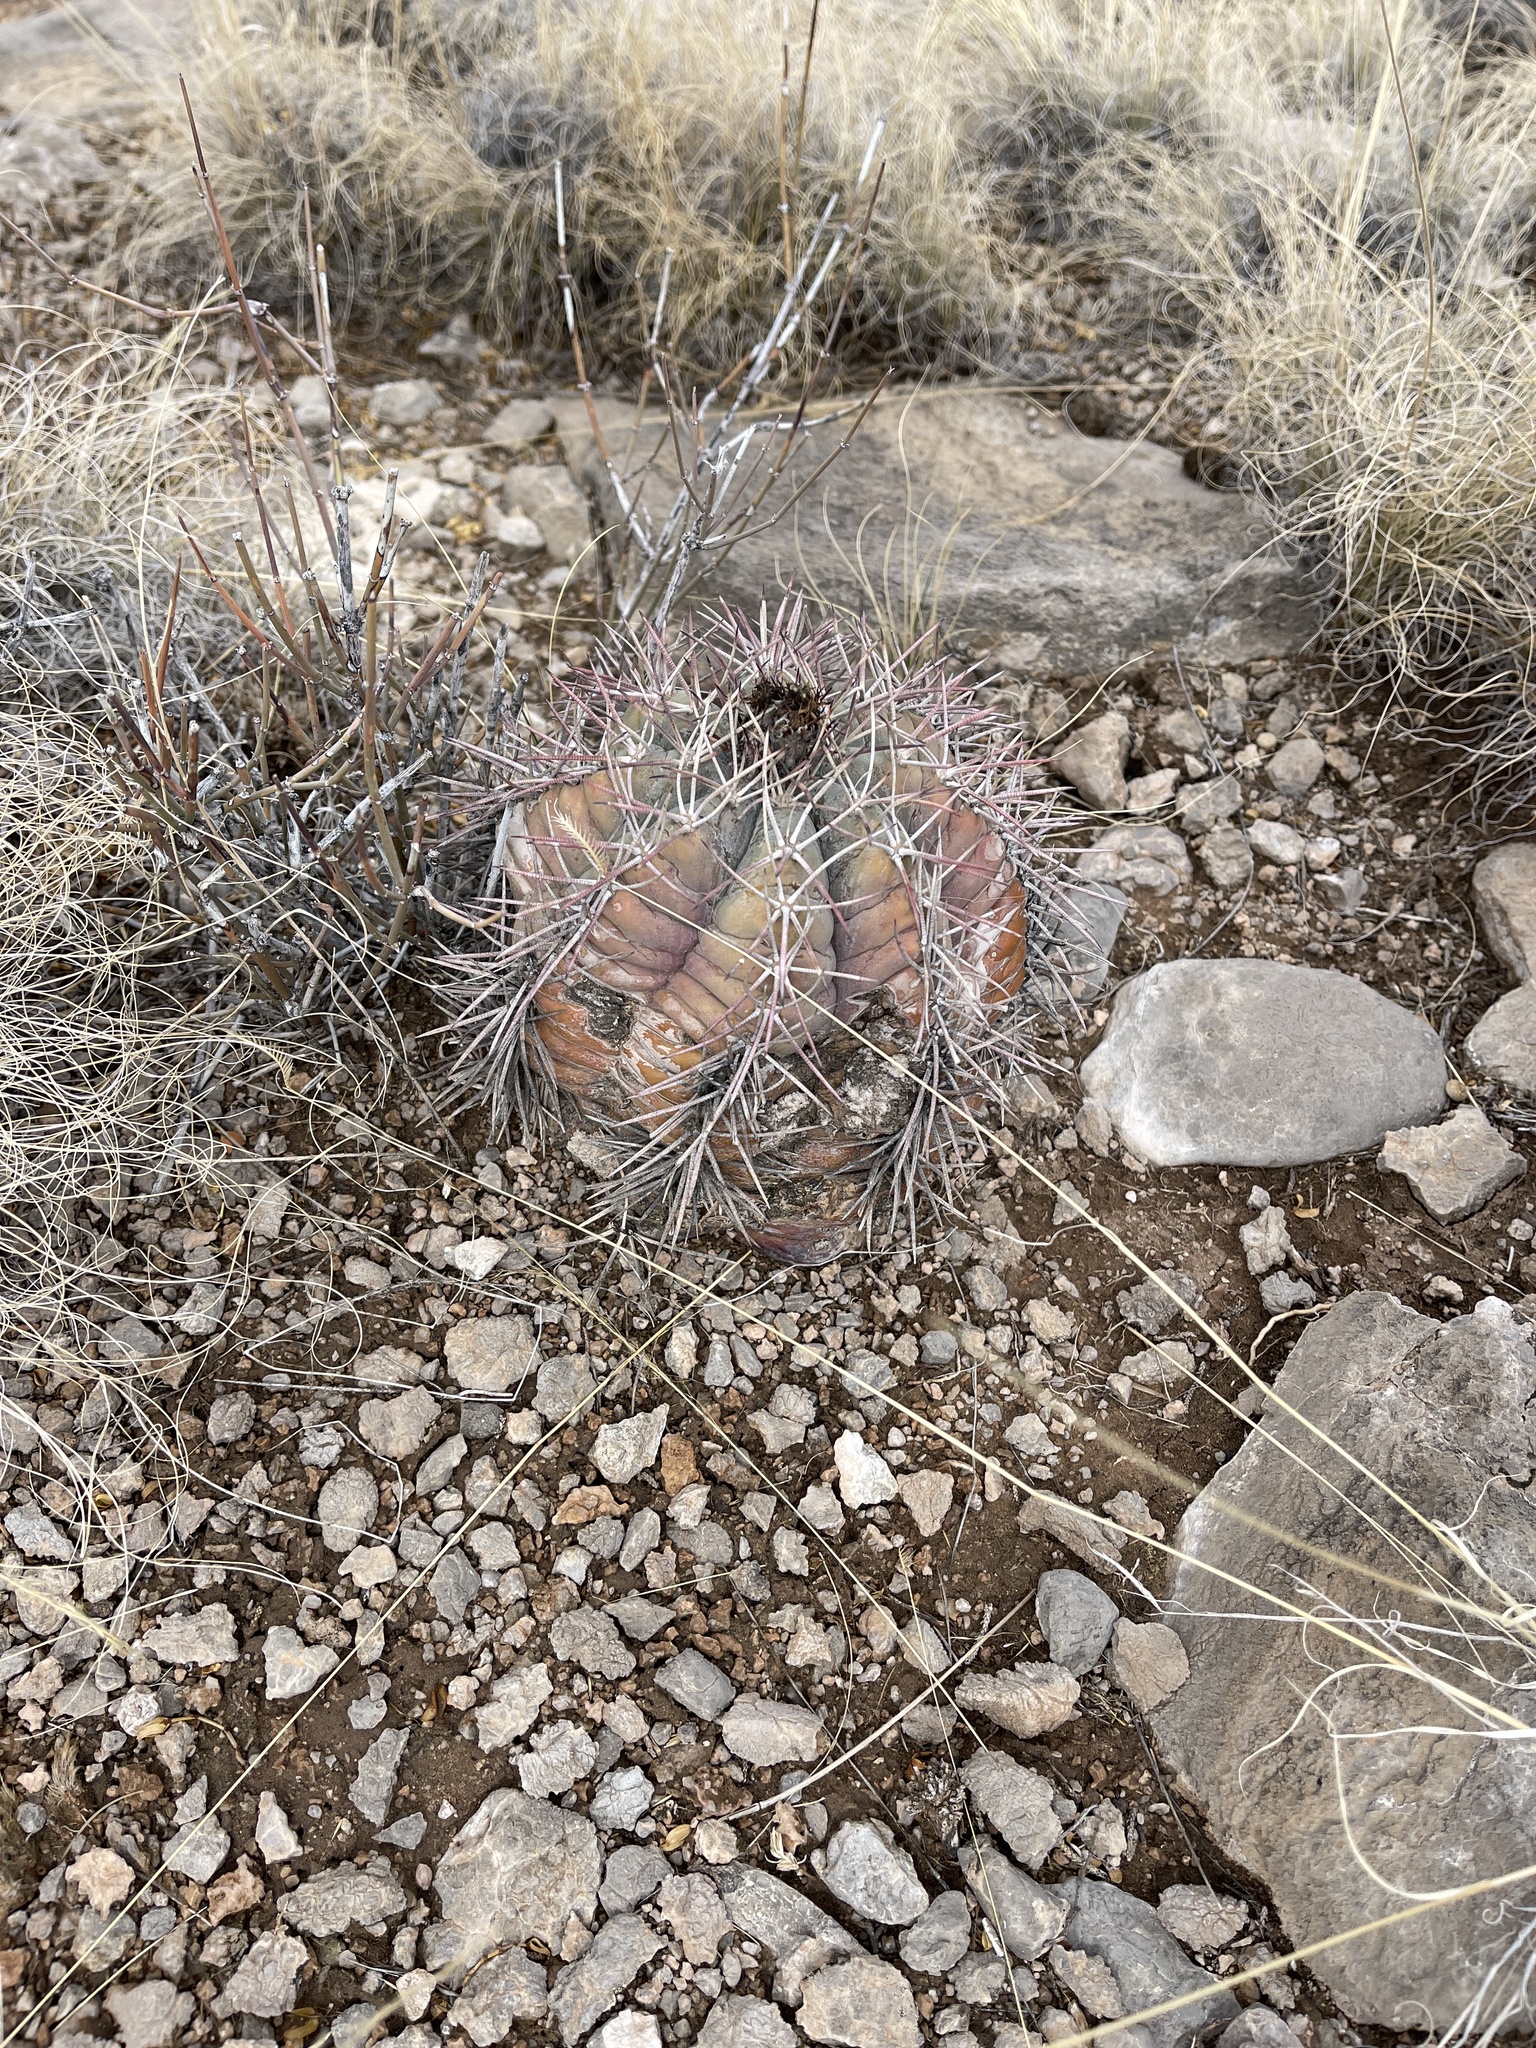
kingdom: Plantae
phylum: Tracheophyta
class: Magnoliopsida
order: Caryophyllales
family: Cactaceae
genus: Echinocactus
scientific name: Echinocactus horizonthalonius
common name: Devilshead
